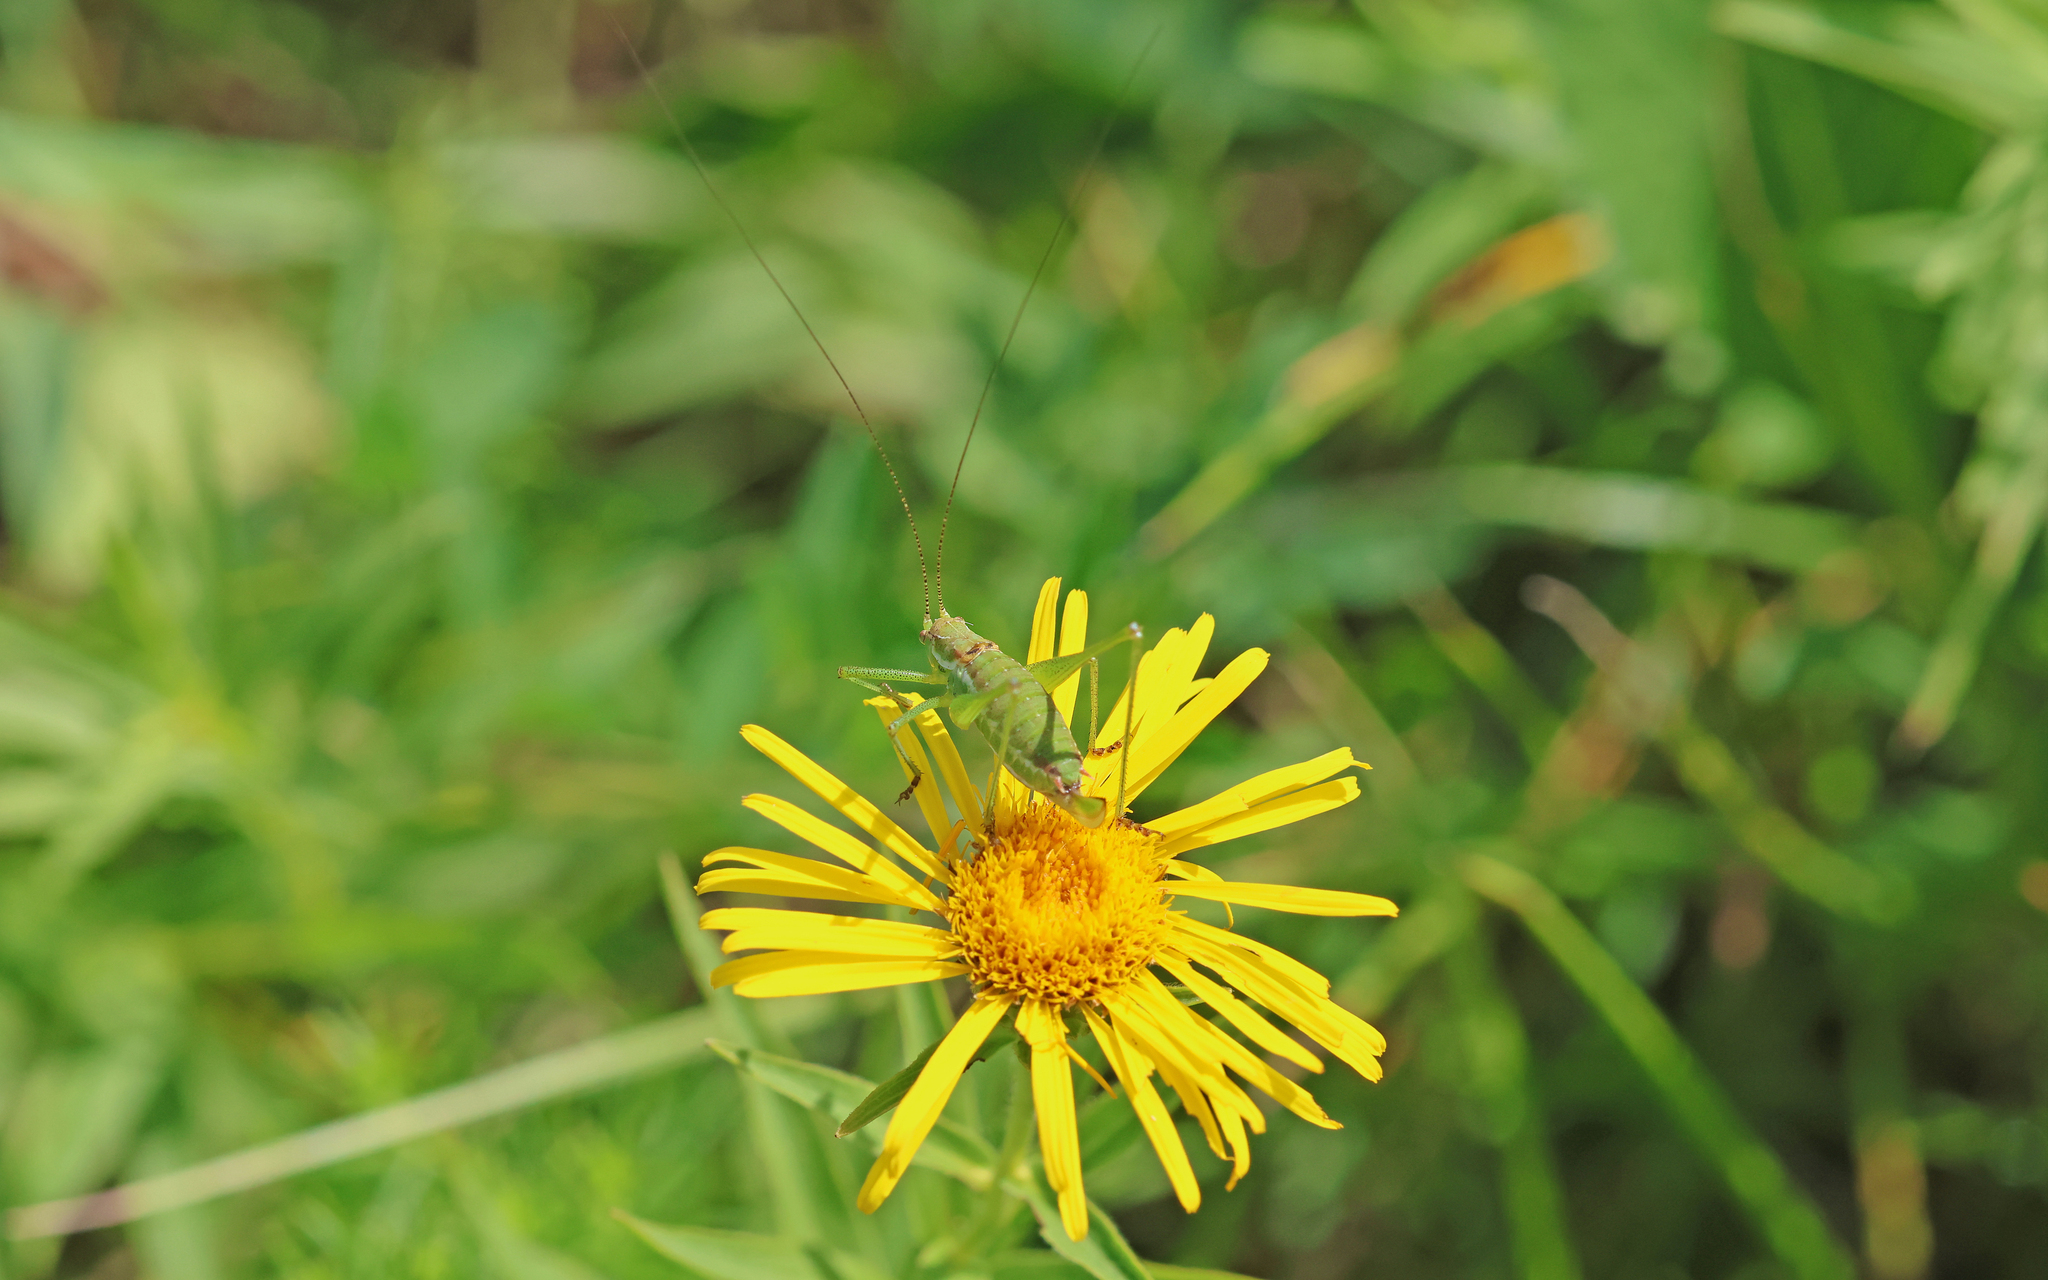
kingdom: Animalia
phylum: Arthropoda
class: Insecta
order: Orthoptera
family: Tettigoniidae
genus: Leptophyes
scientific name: Leptophyes albovittata
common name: Striped bush-cricket
